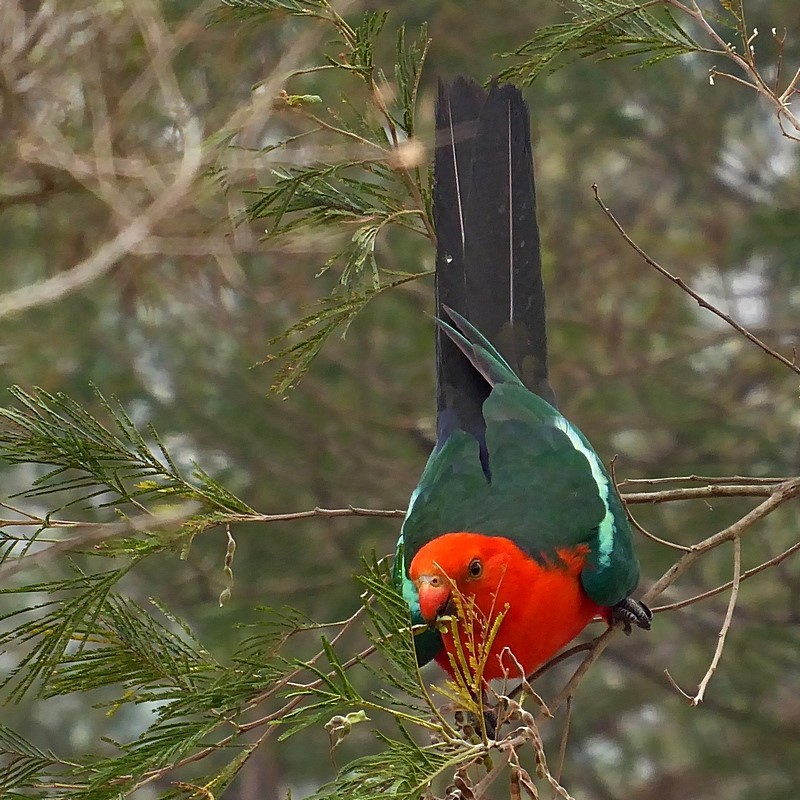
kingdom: Animalia
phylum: Chordata
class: Aves
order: Psittaciformes
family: Psittacidae
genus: Alisterus
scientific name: Alisterus scapularis
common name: Australian king parrot
